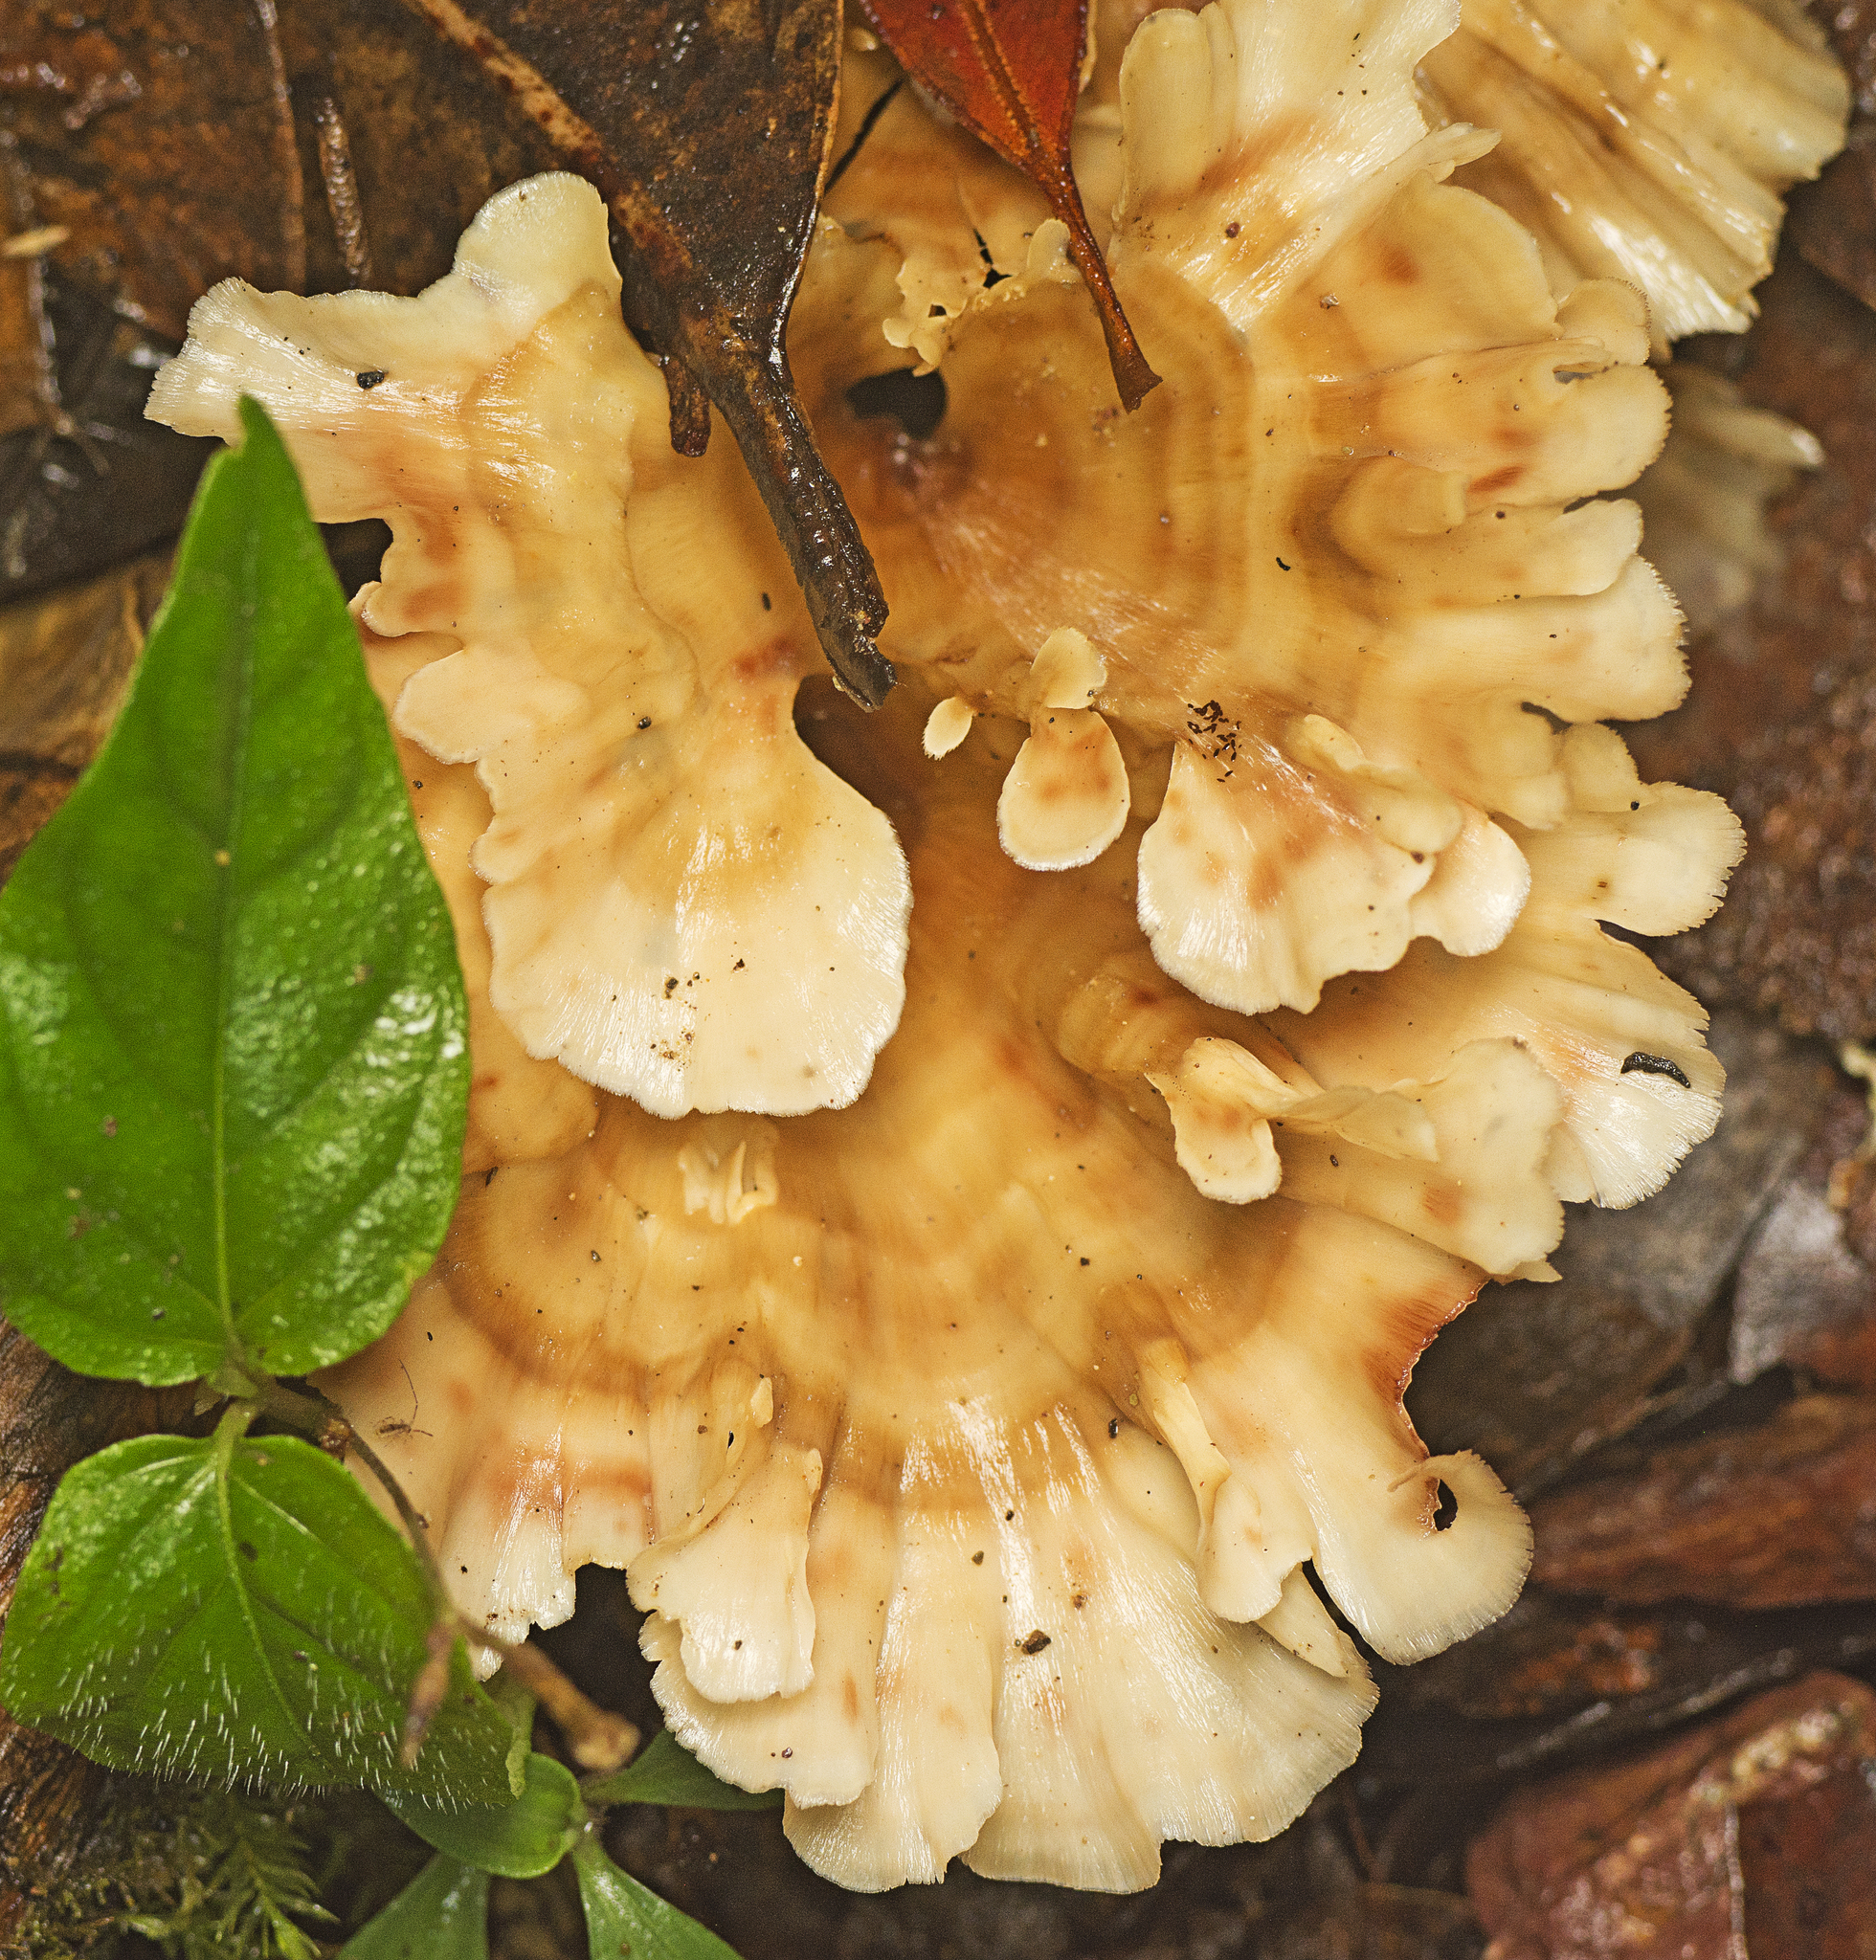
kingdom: Fungi
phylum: Basidiomycota
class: Agaricomycetes
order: Polyporales
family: Podoscyphaceae
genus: Podoscypha
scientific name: Podoscypha petalodes
